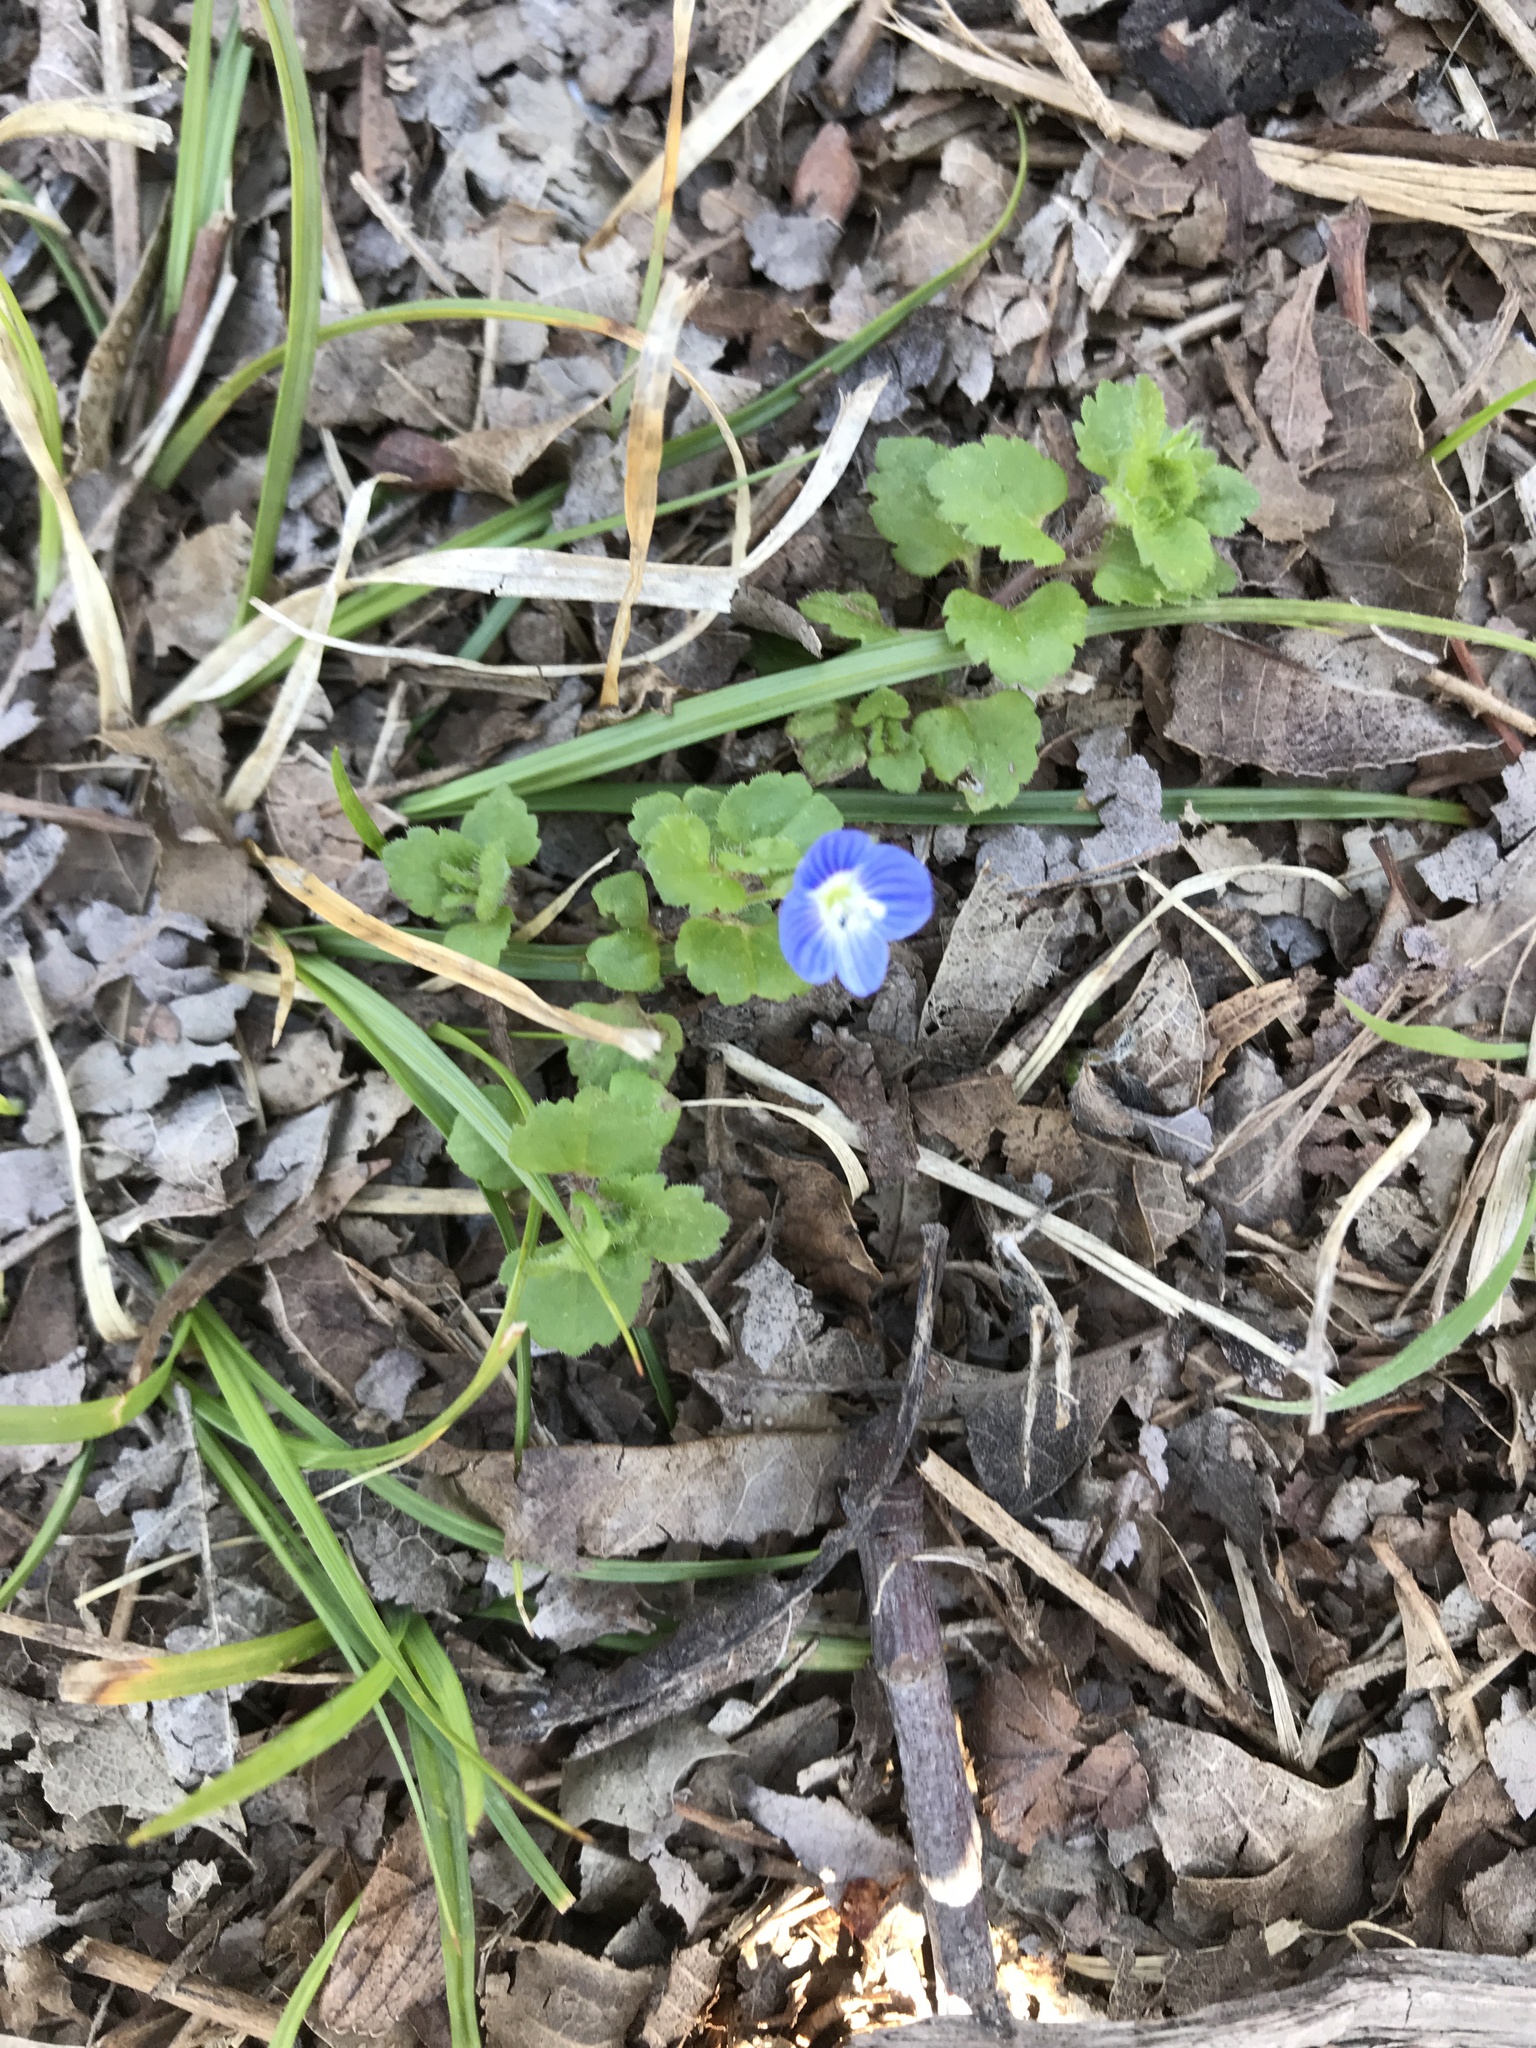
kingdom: Plantae
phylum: Tracheophyta
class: Magnoliopsida
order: Lamiales
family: Plantaginaceae
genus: Veronica
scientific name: Veronica persica
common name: Common field-speedwell
